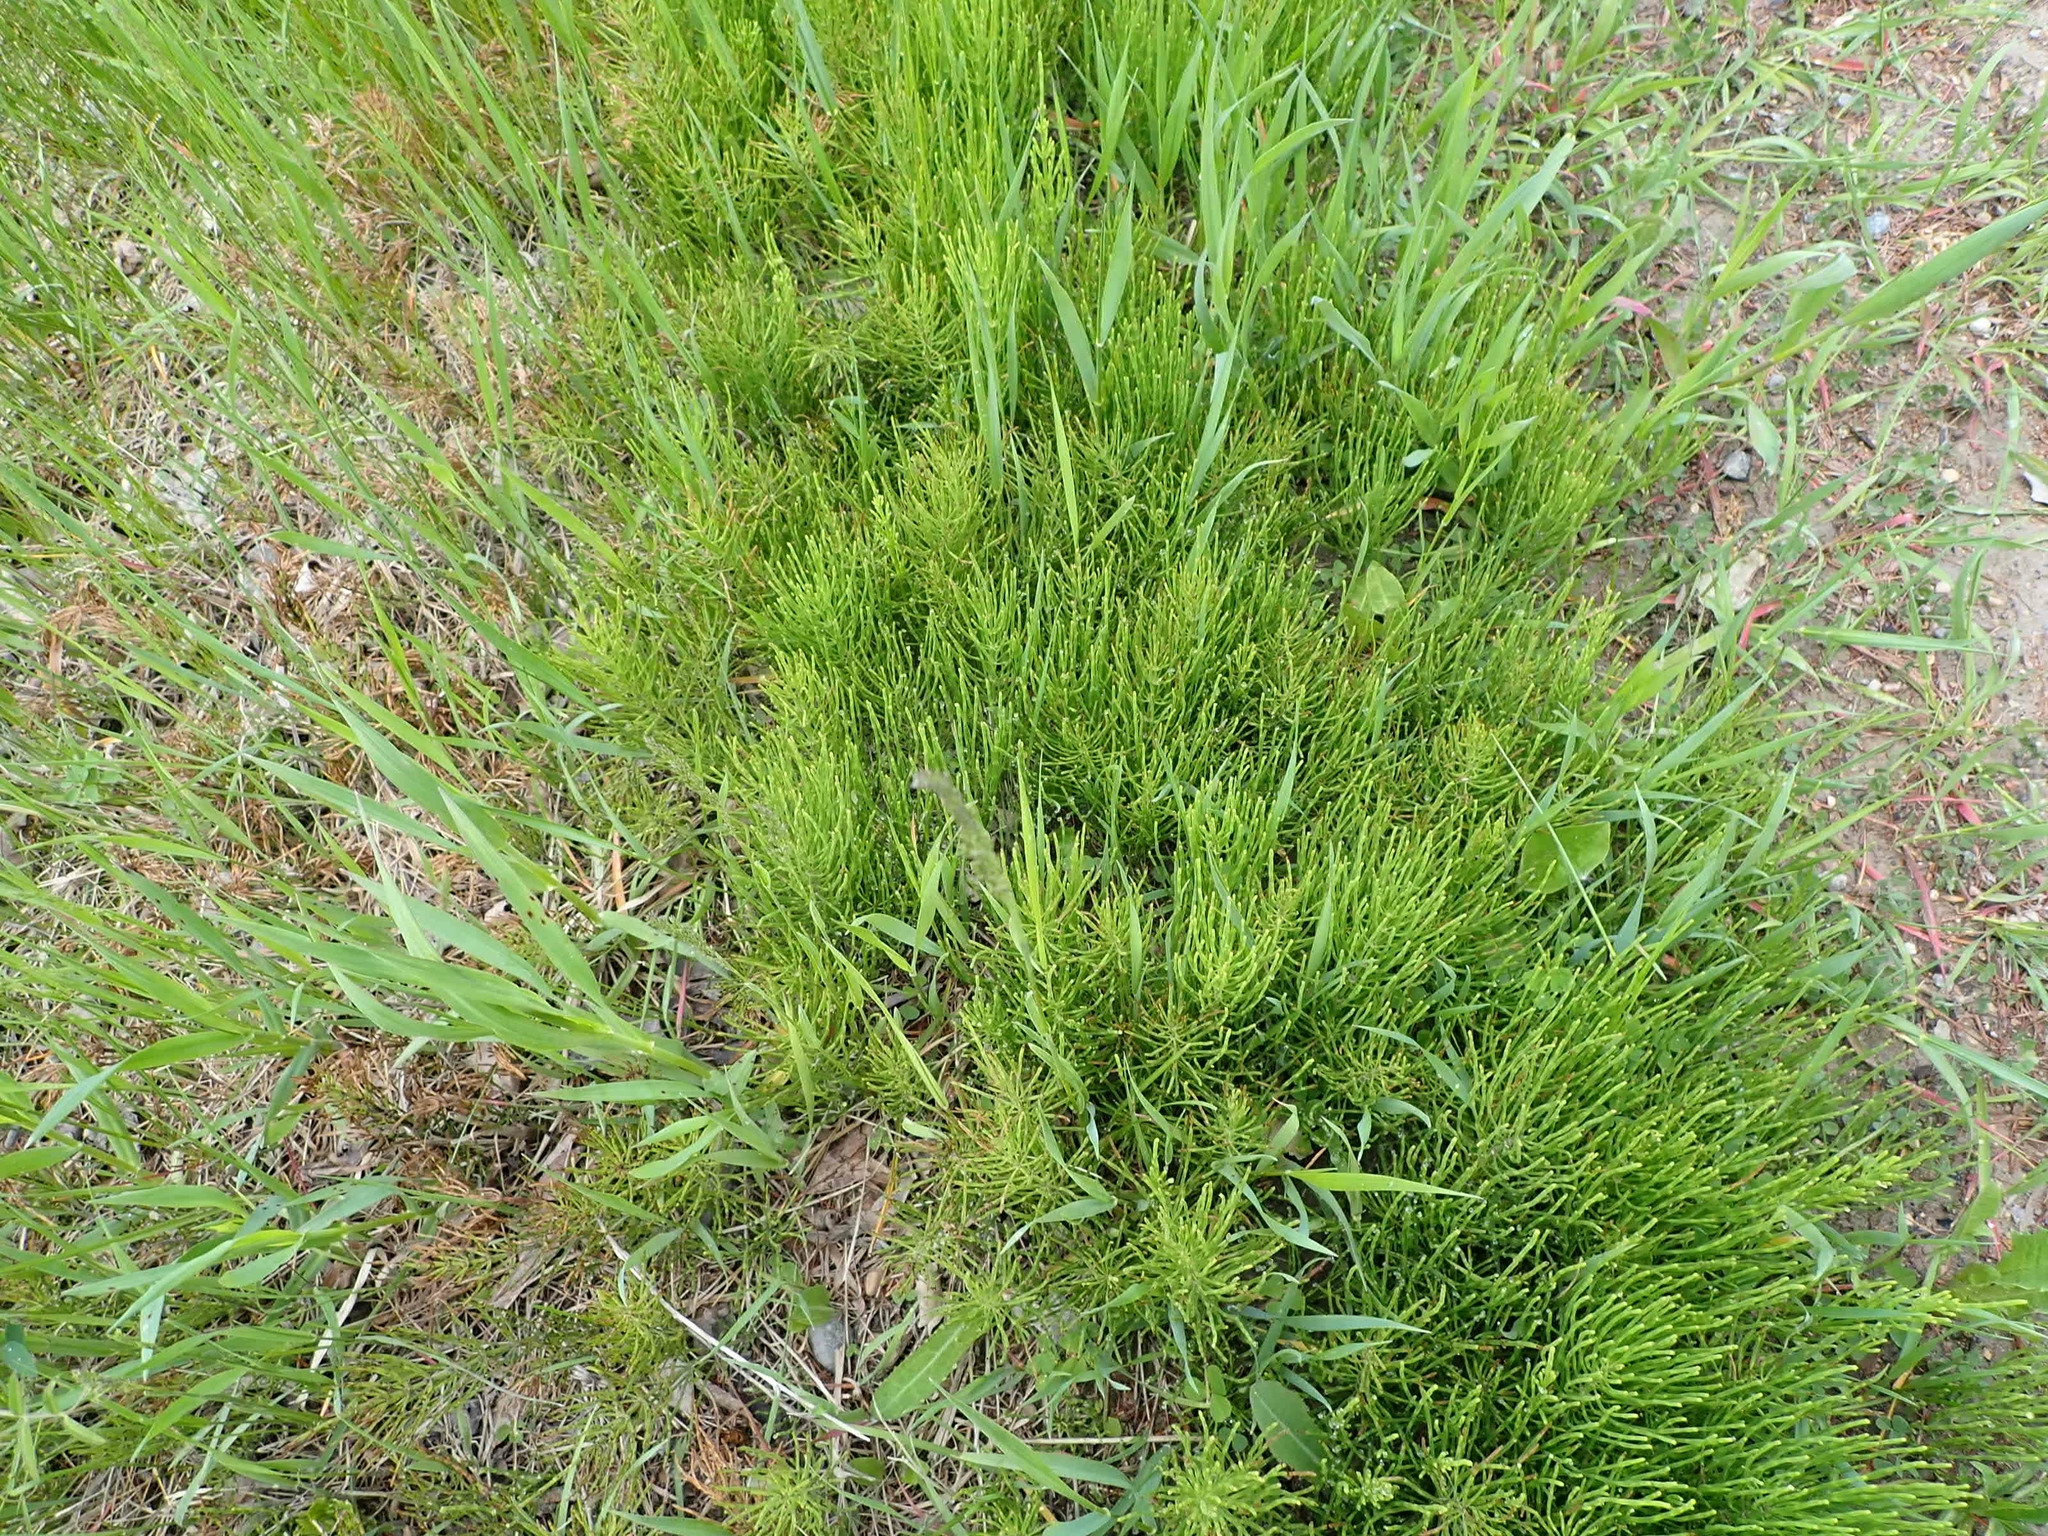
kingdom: Plantae
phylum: Tracheophyta
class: Polypodiopsida
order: Equisetales
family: Equisetaceae
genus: Equisetum
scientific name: Equisetum arvense
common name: Field horsetail
